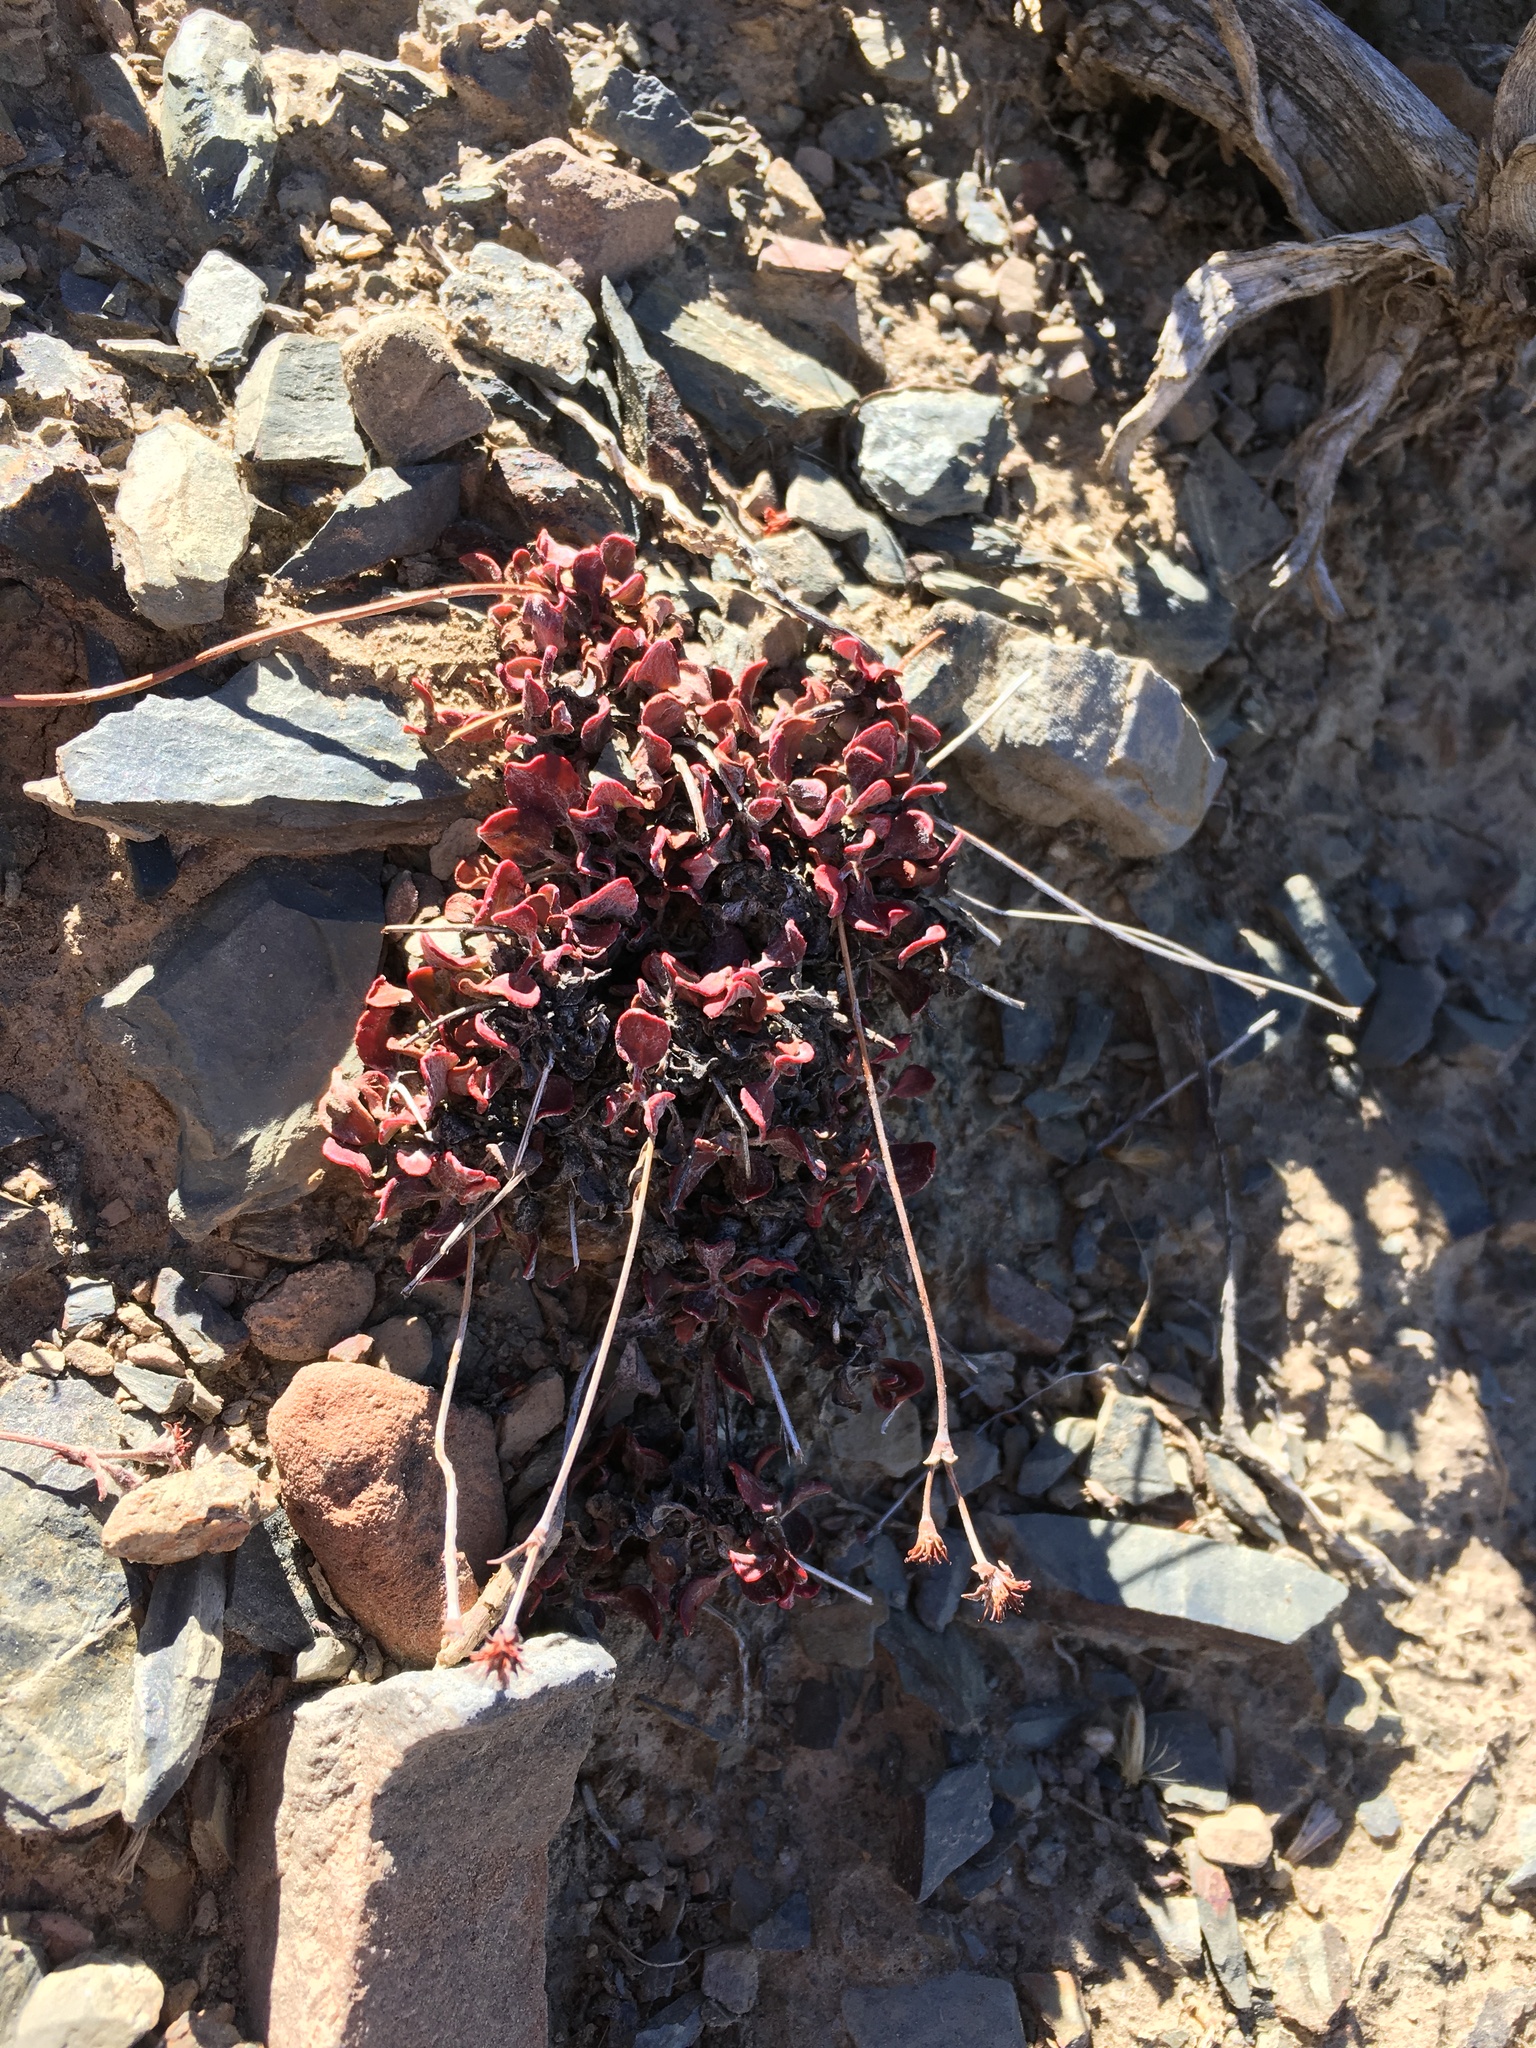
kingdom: Plantae
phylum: Tracheophyta
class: Magnoliopsida
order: Caryophyllales
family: Polygonaceae
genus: Eriogonum
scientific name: Eriogonum umbellatum
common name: Sulfur-buckwheat
